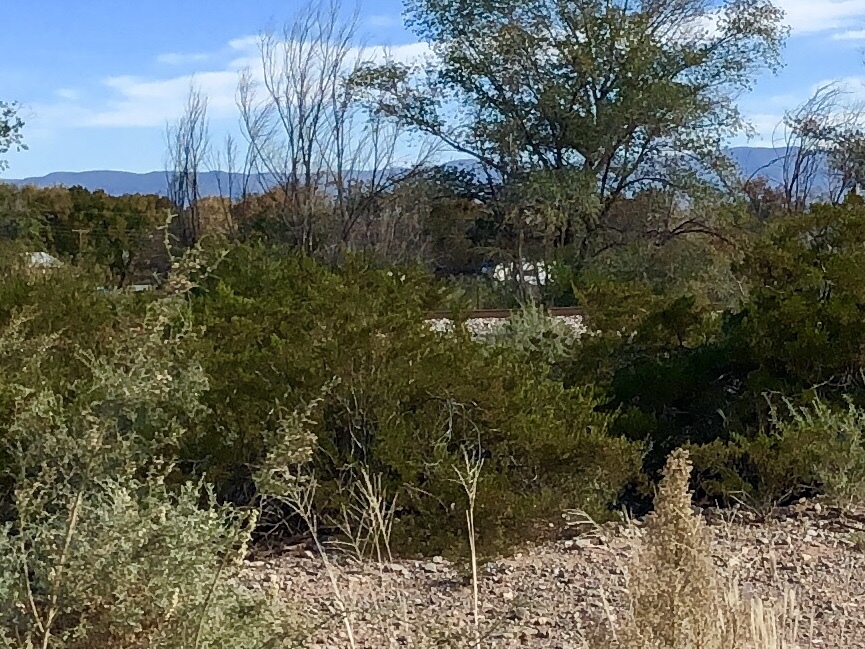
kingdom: Plantae
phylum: Tracheophyta
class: Magnoliopsida
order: Zygophyllales
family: Zygophyllaceae
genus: Larrea
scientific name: Larrea tridentata
